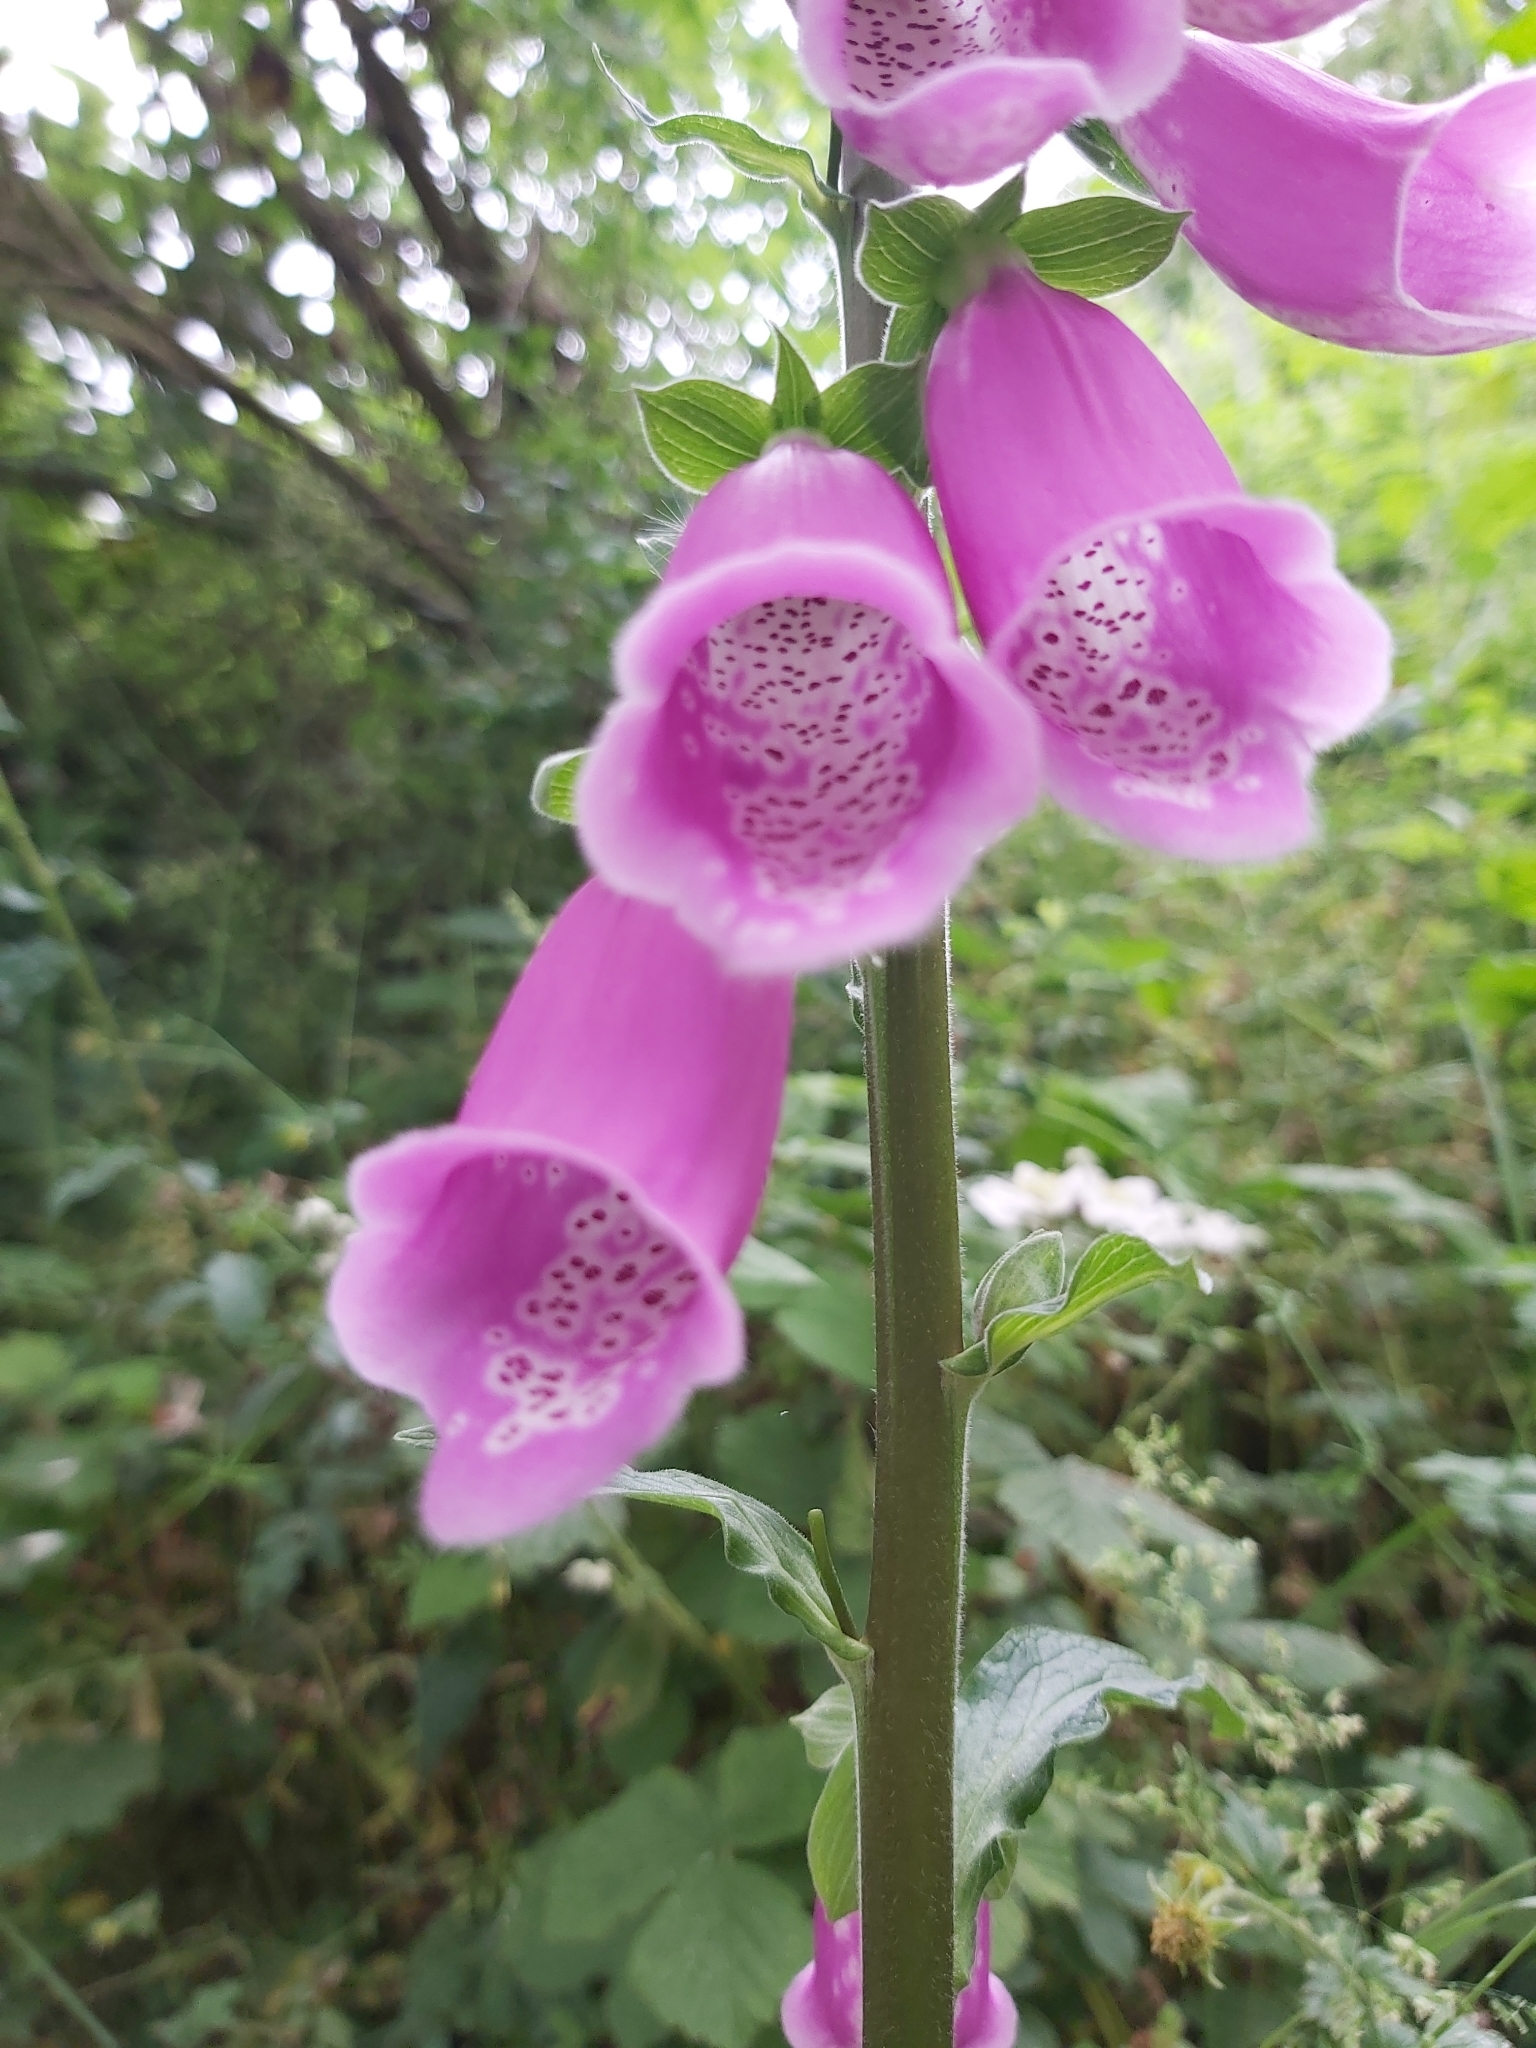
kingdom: Plantae
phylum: Tracheophyta
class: Magnoliopsida
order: Lamiales
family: Plantaginaceae
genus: Digitalis
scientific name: Digitalis purpurea
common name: Foxglove
